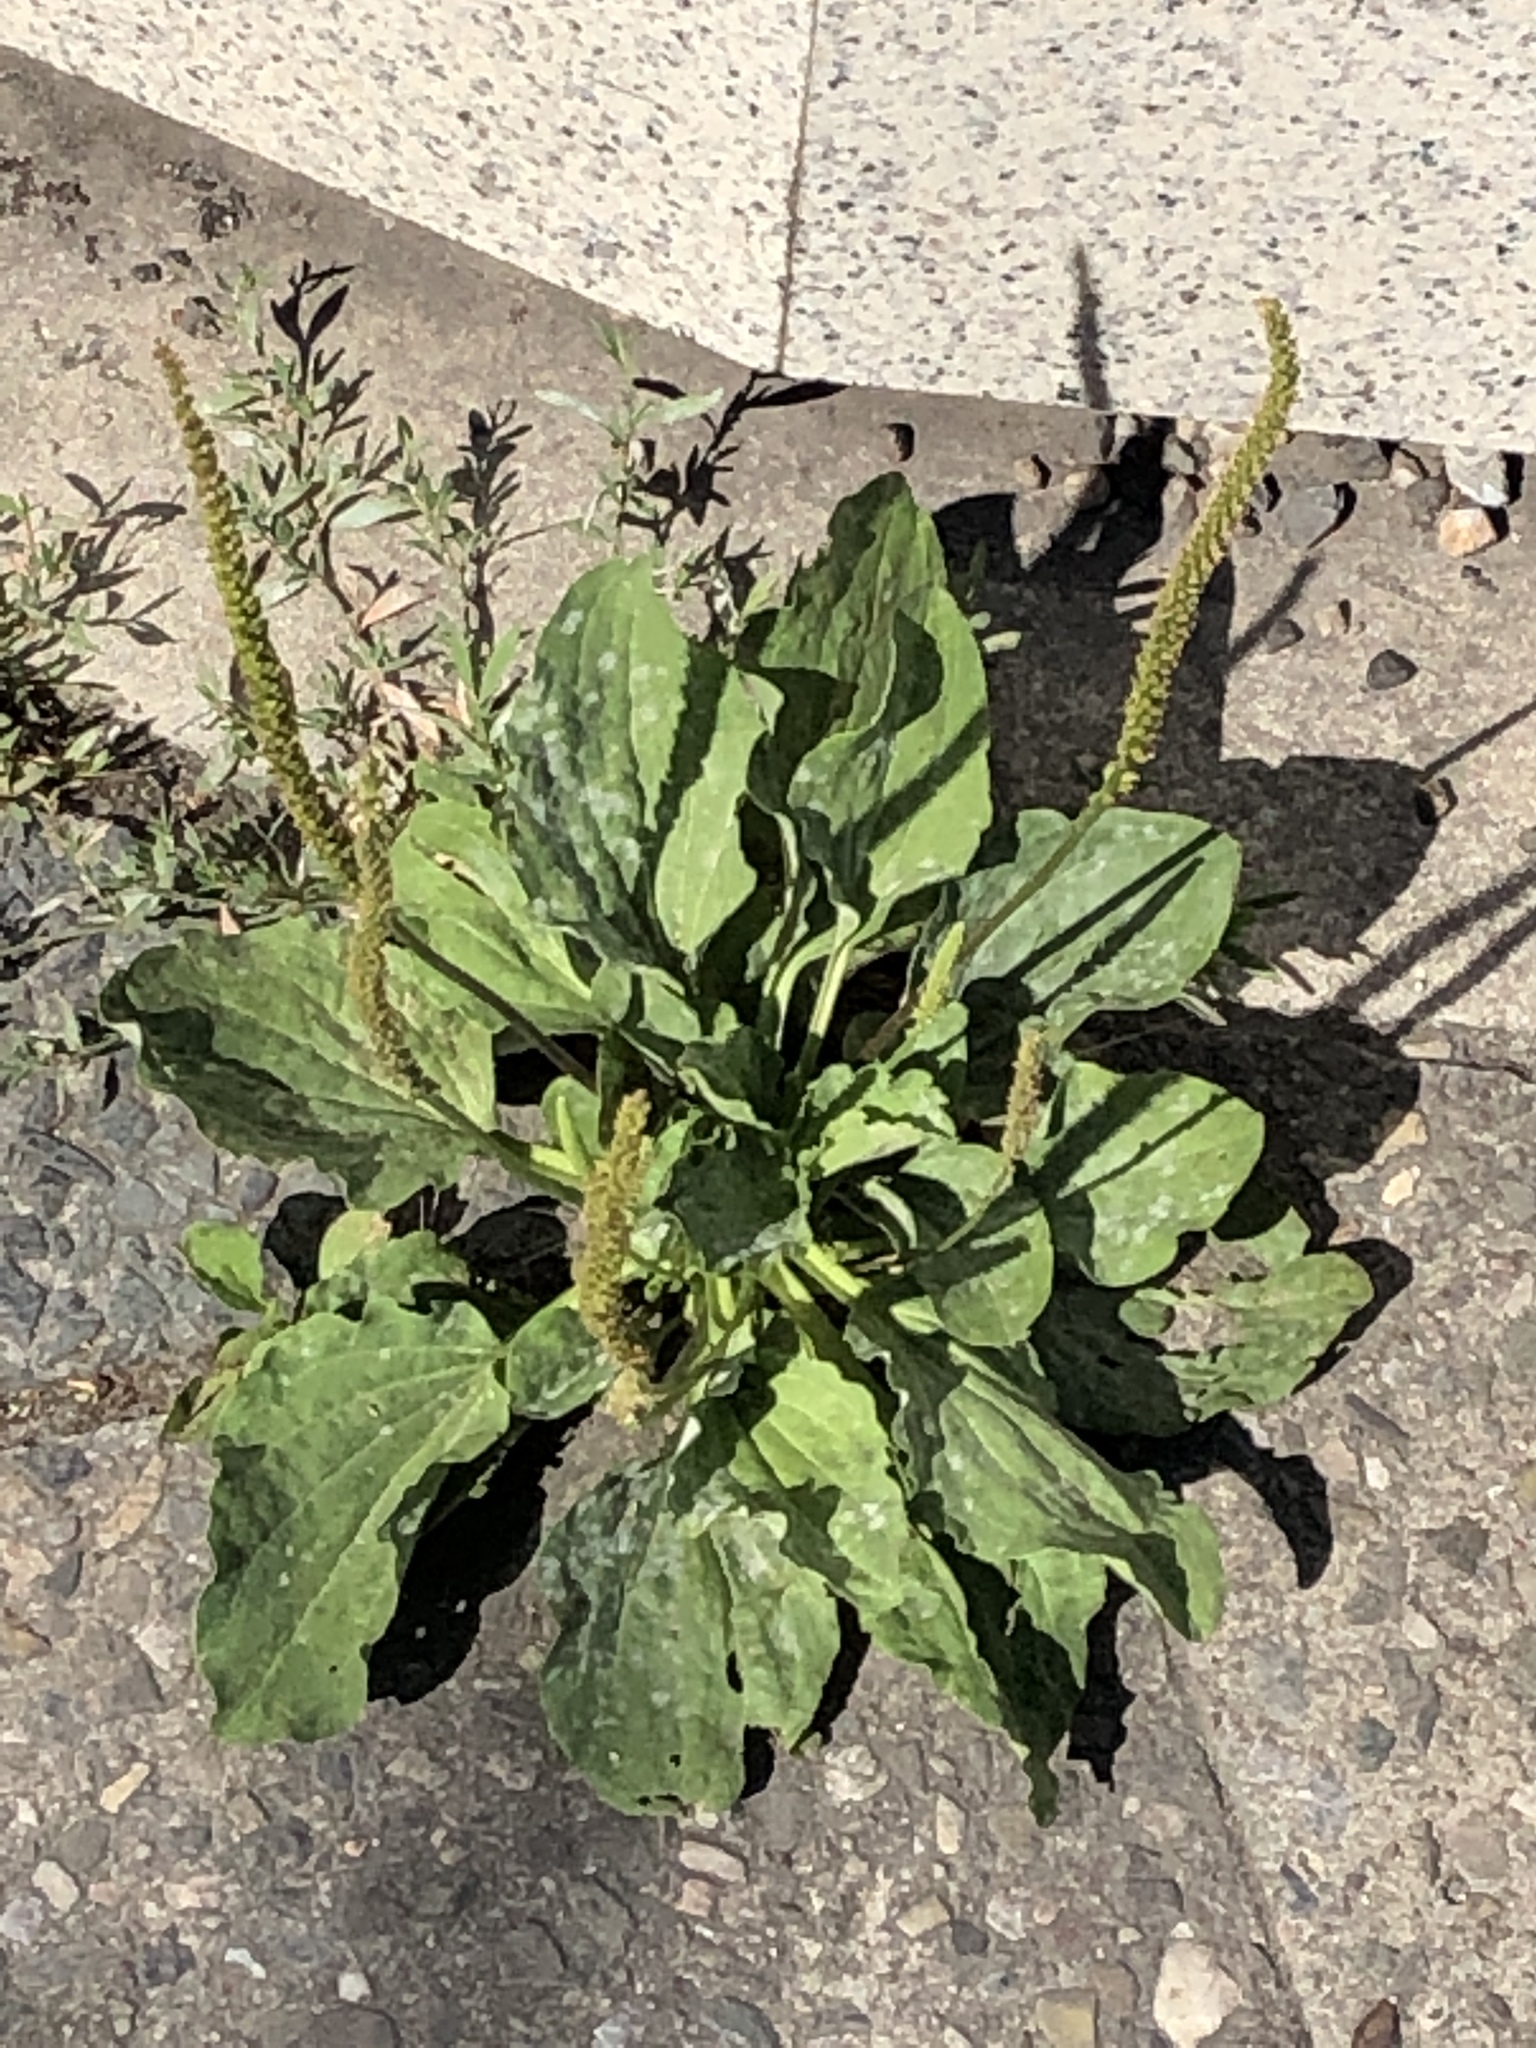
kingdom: Plantae
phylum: Tracheophyta
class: Magnoliopsida
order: Lamiales
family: Plantaginaceae
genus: Plantago
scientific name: Plantago major
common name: Common plantain
